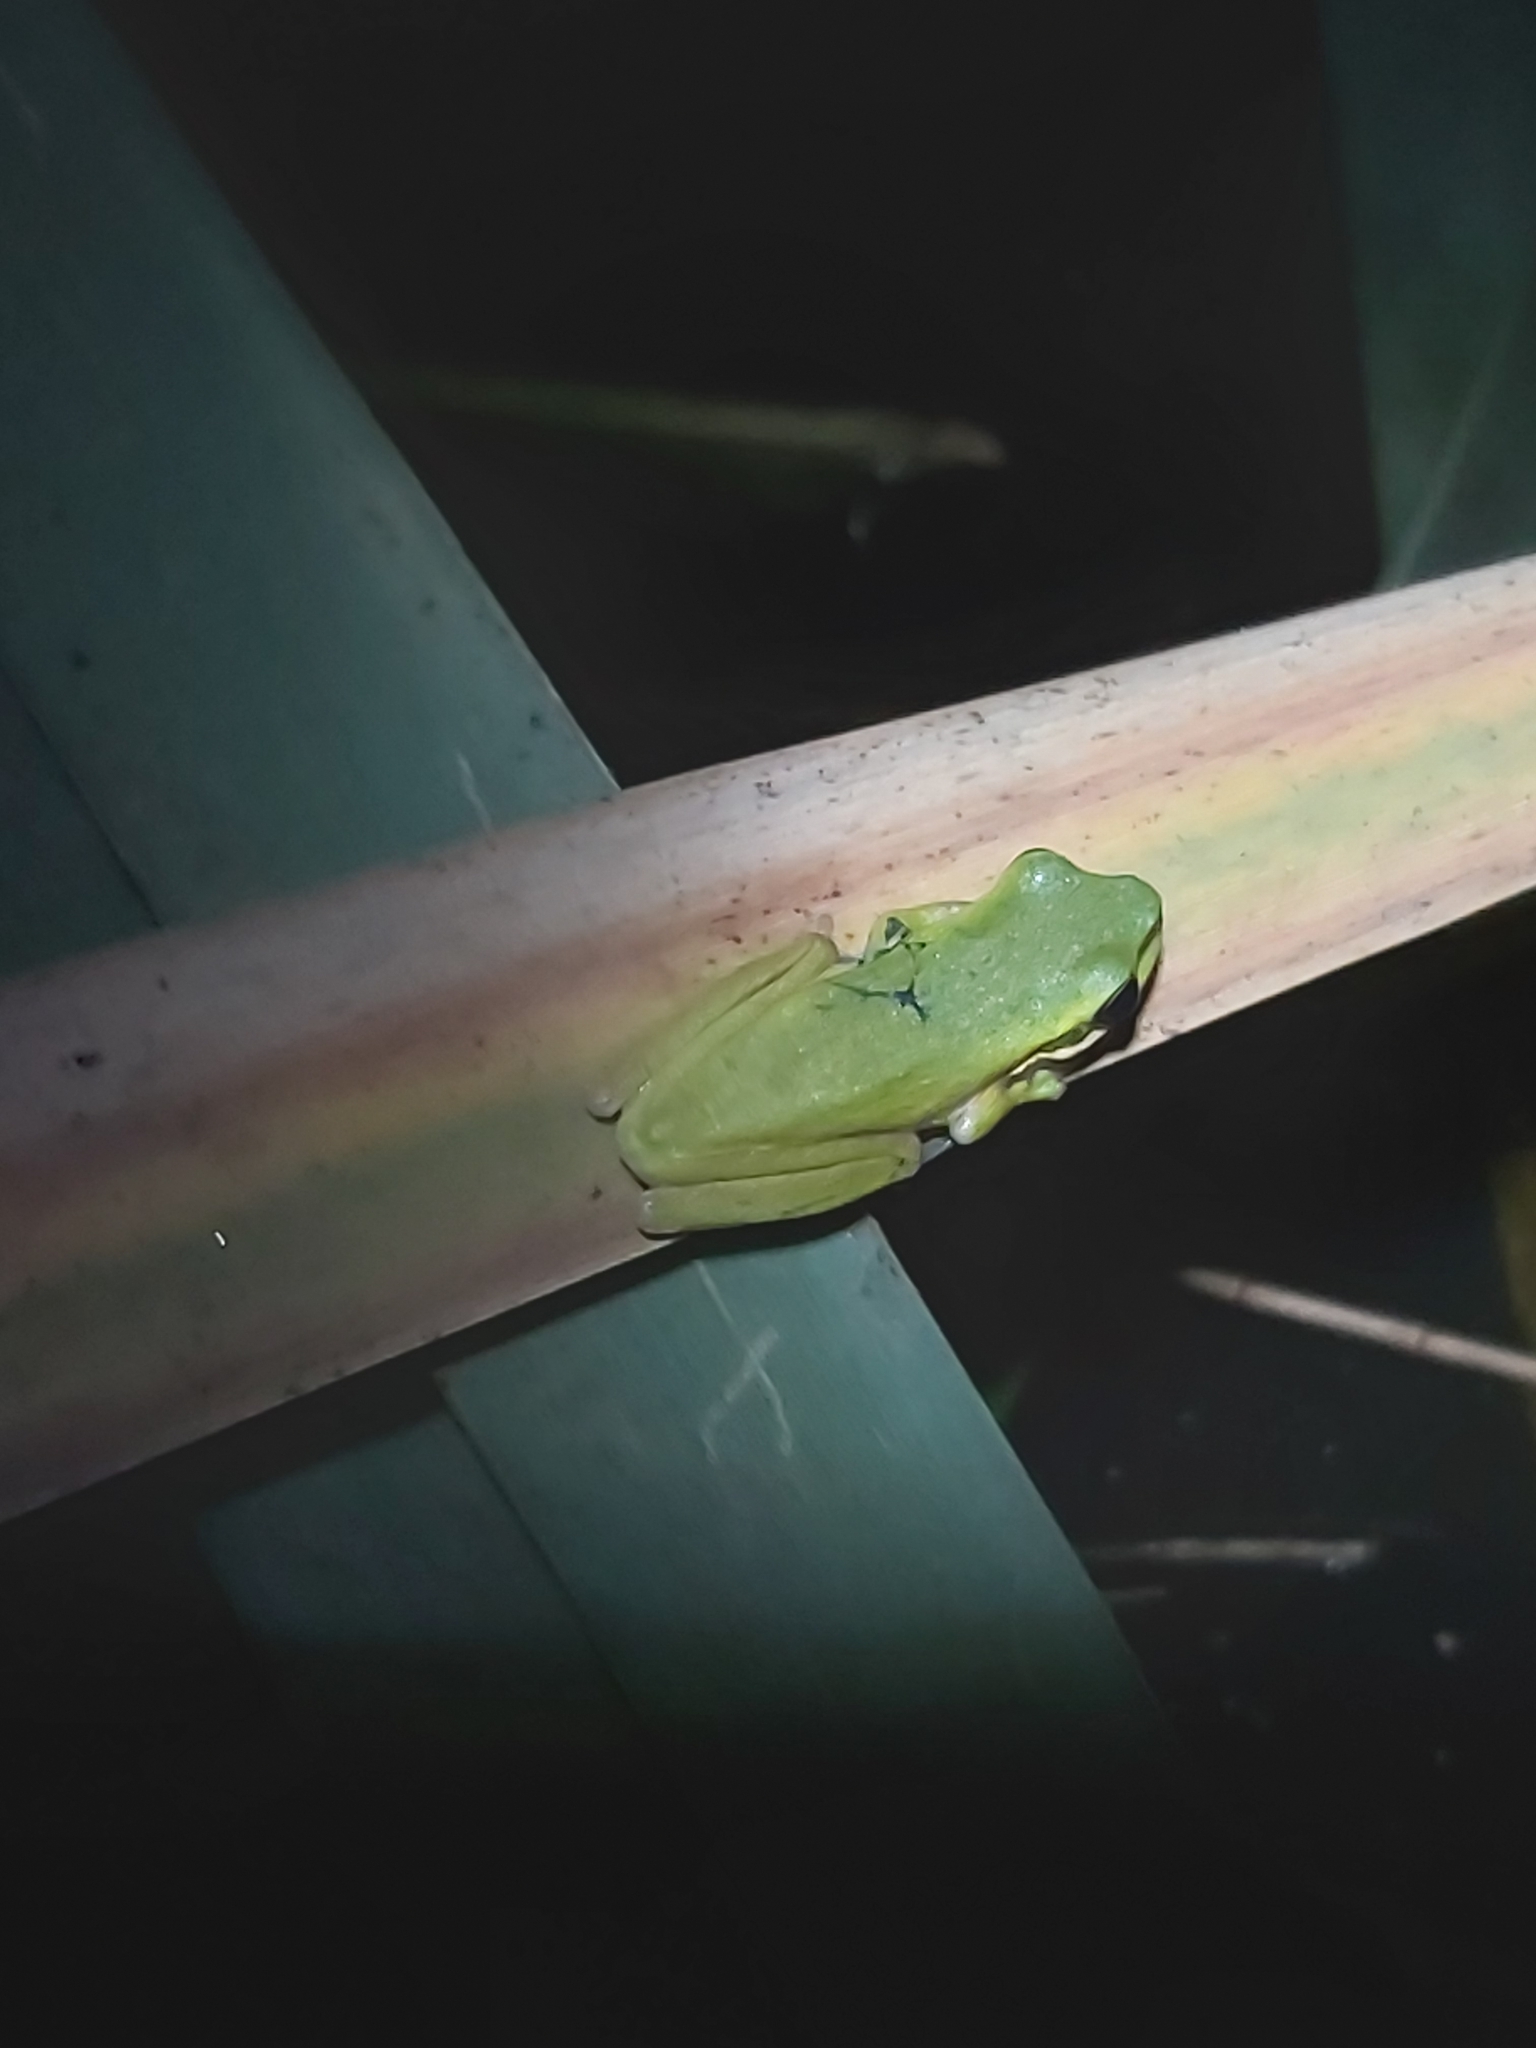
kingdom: Animalia
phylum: Chordata
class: Amphibia
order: Anura
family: Pelodryadidae
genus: Litoria
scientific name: Litoria fallax
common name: Eastern dwarf treefrog
